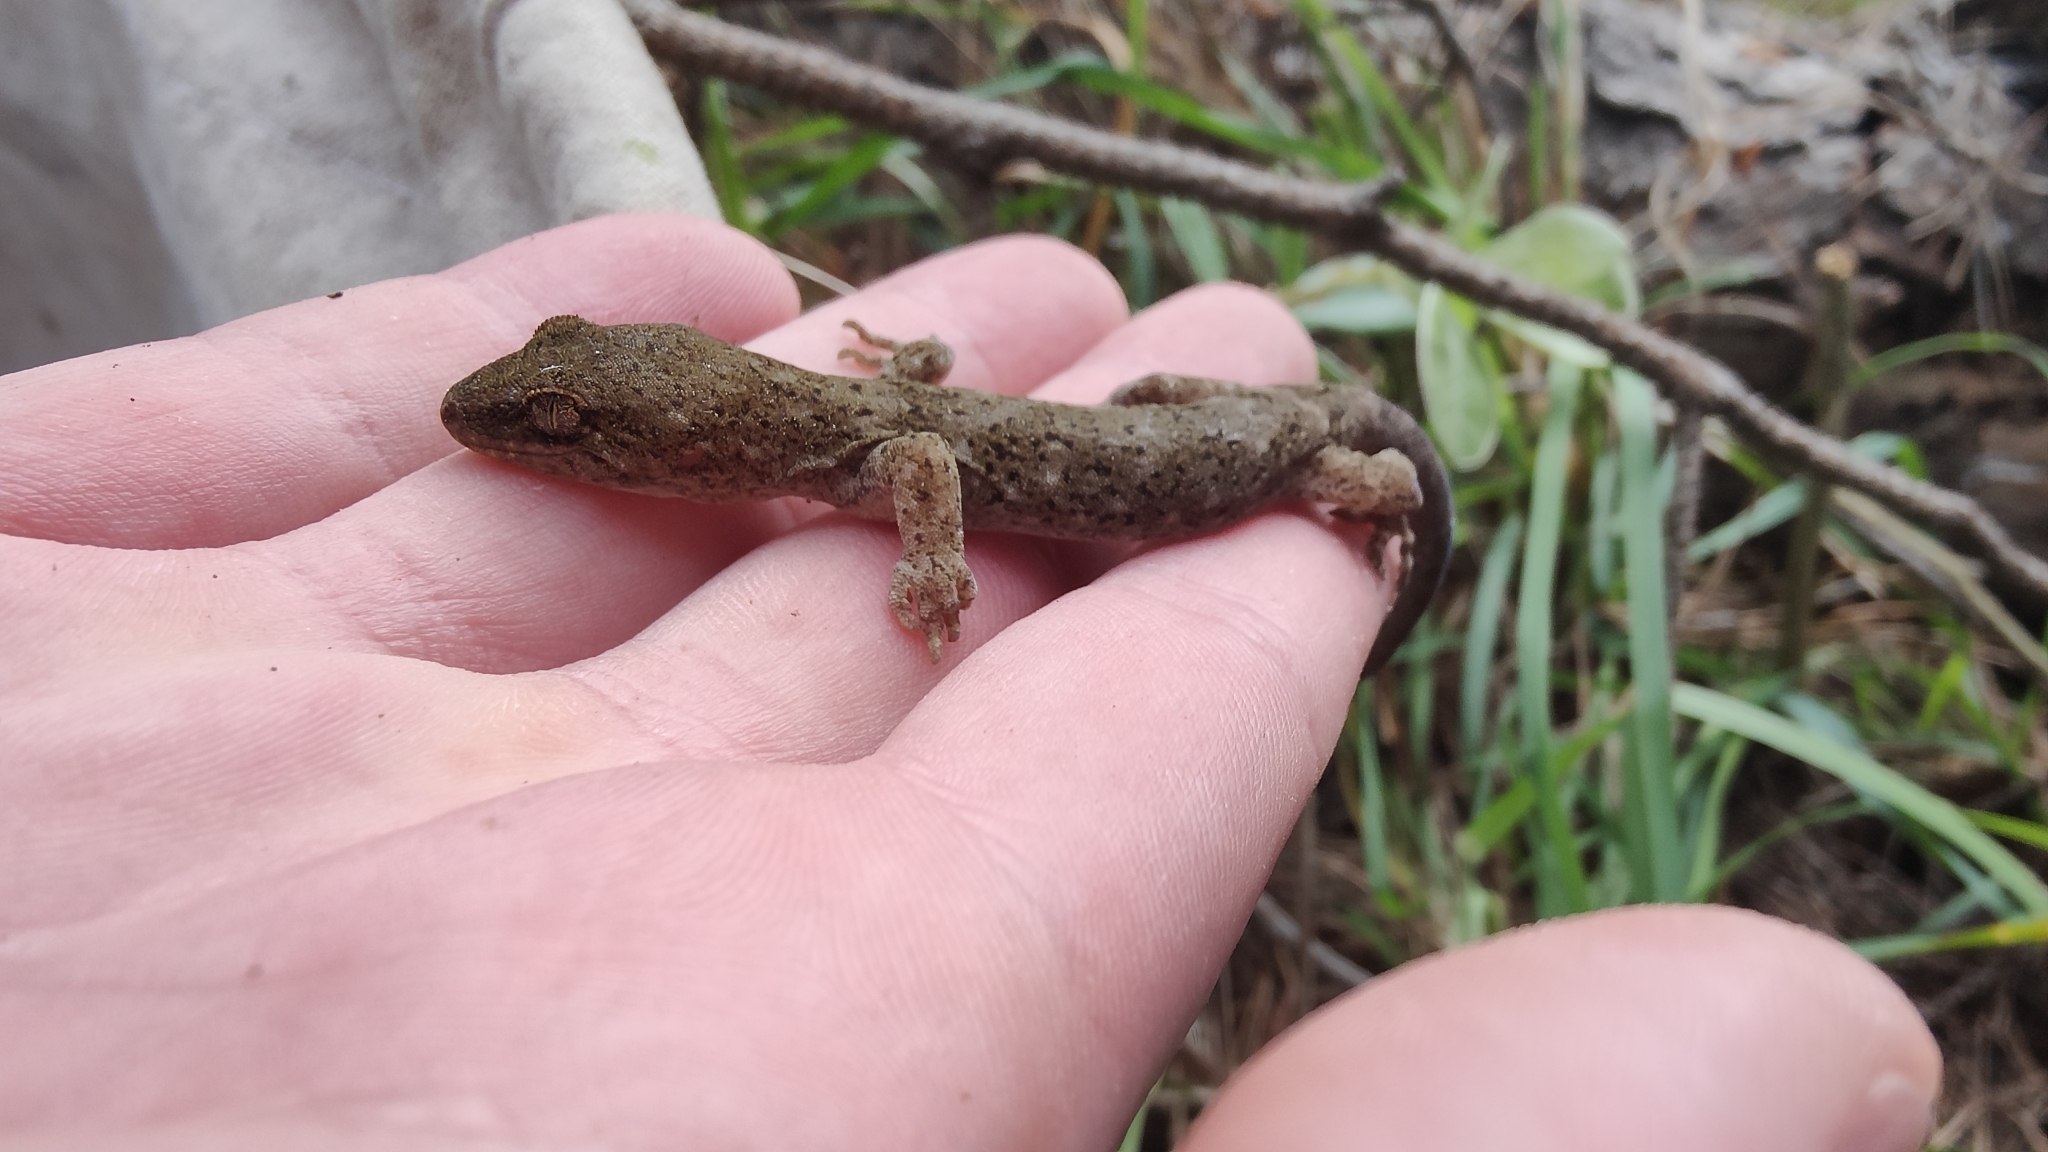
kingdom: Animalia
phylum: Chordata
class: Squamata
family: Diplodactylidae
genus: Woodworthia
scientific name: Woodworthia brunnea
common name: Canterbury gecko
